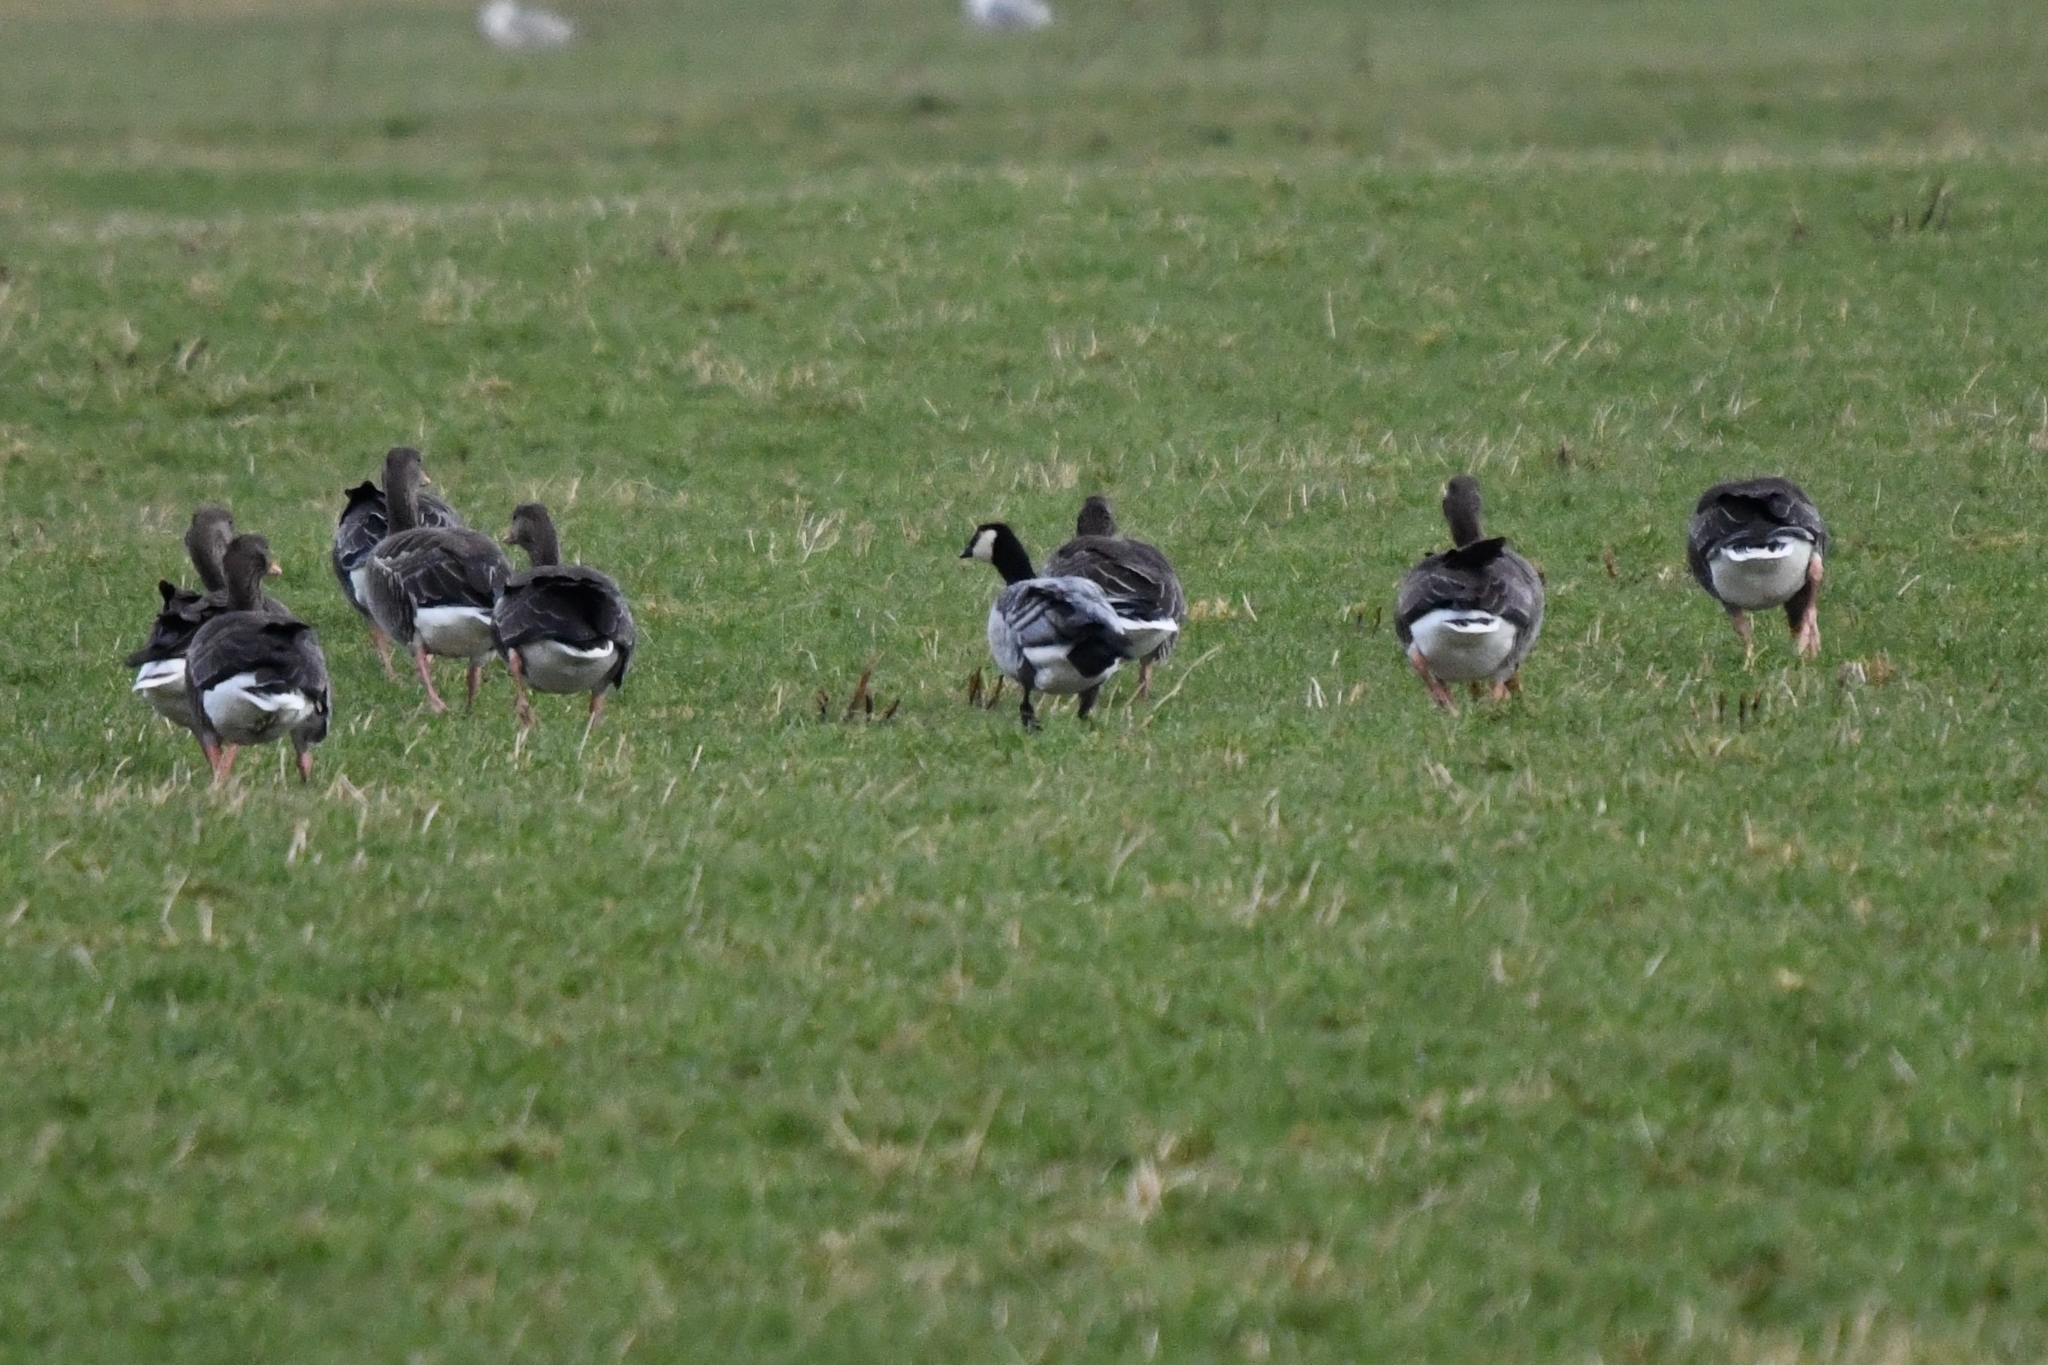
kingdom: Animalia
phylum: Chordata
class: Aves
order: Anseriformes
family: Anatidae
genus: Branta
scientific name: Branta leucopsis
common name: Barnacle goose
